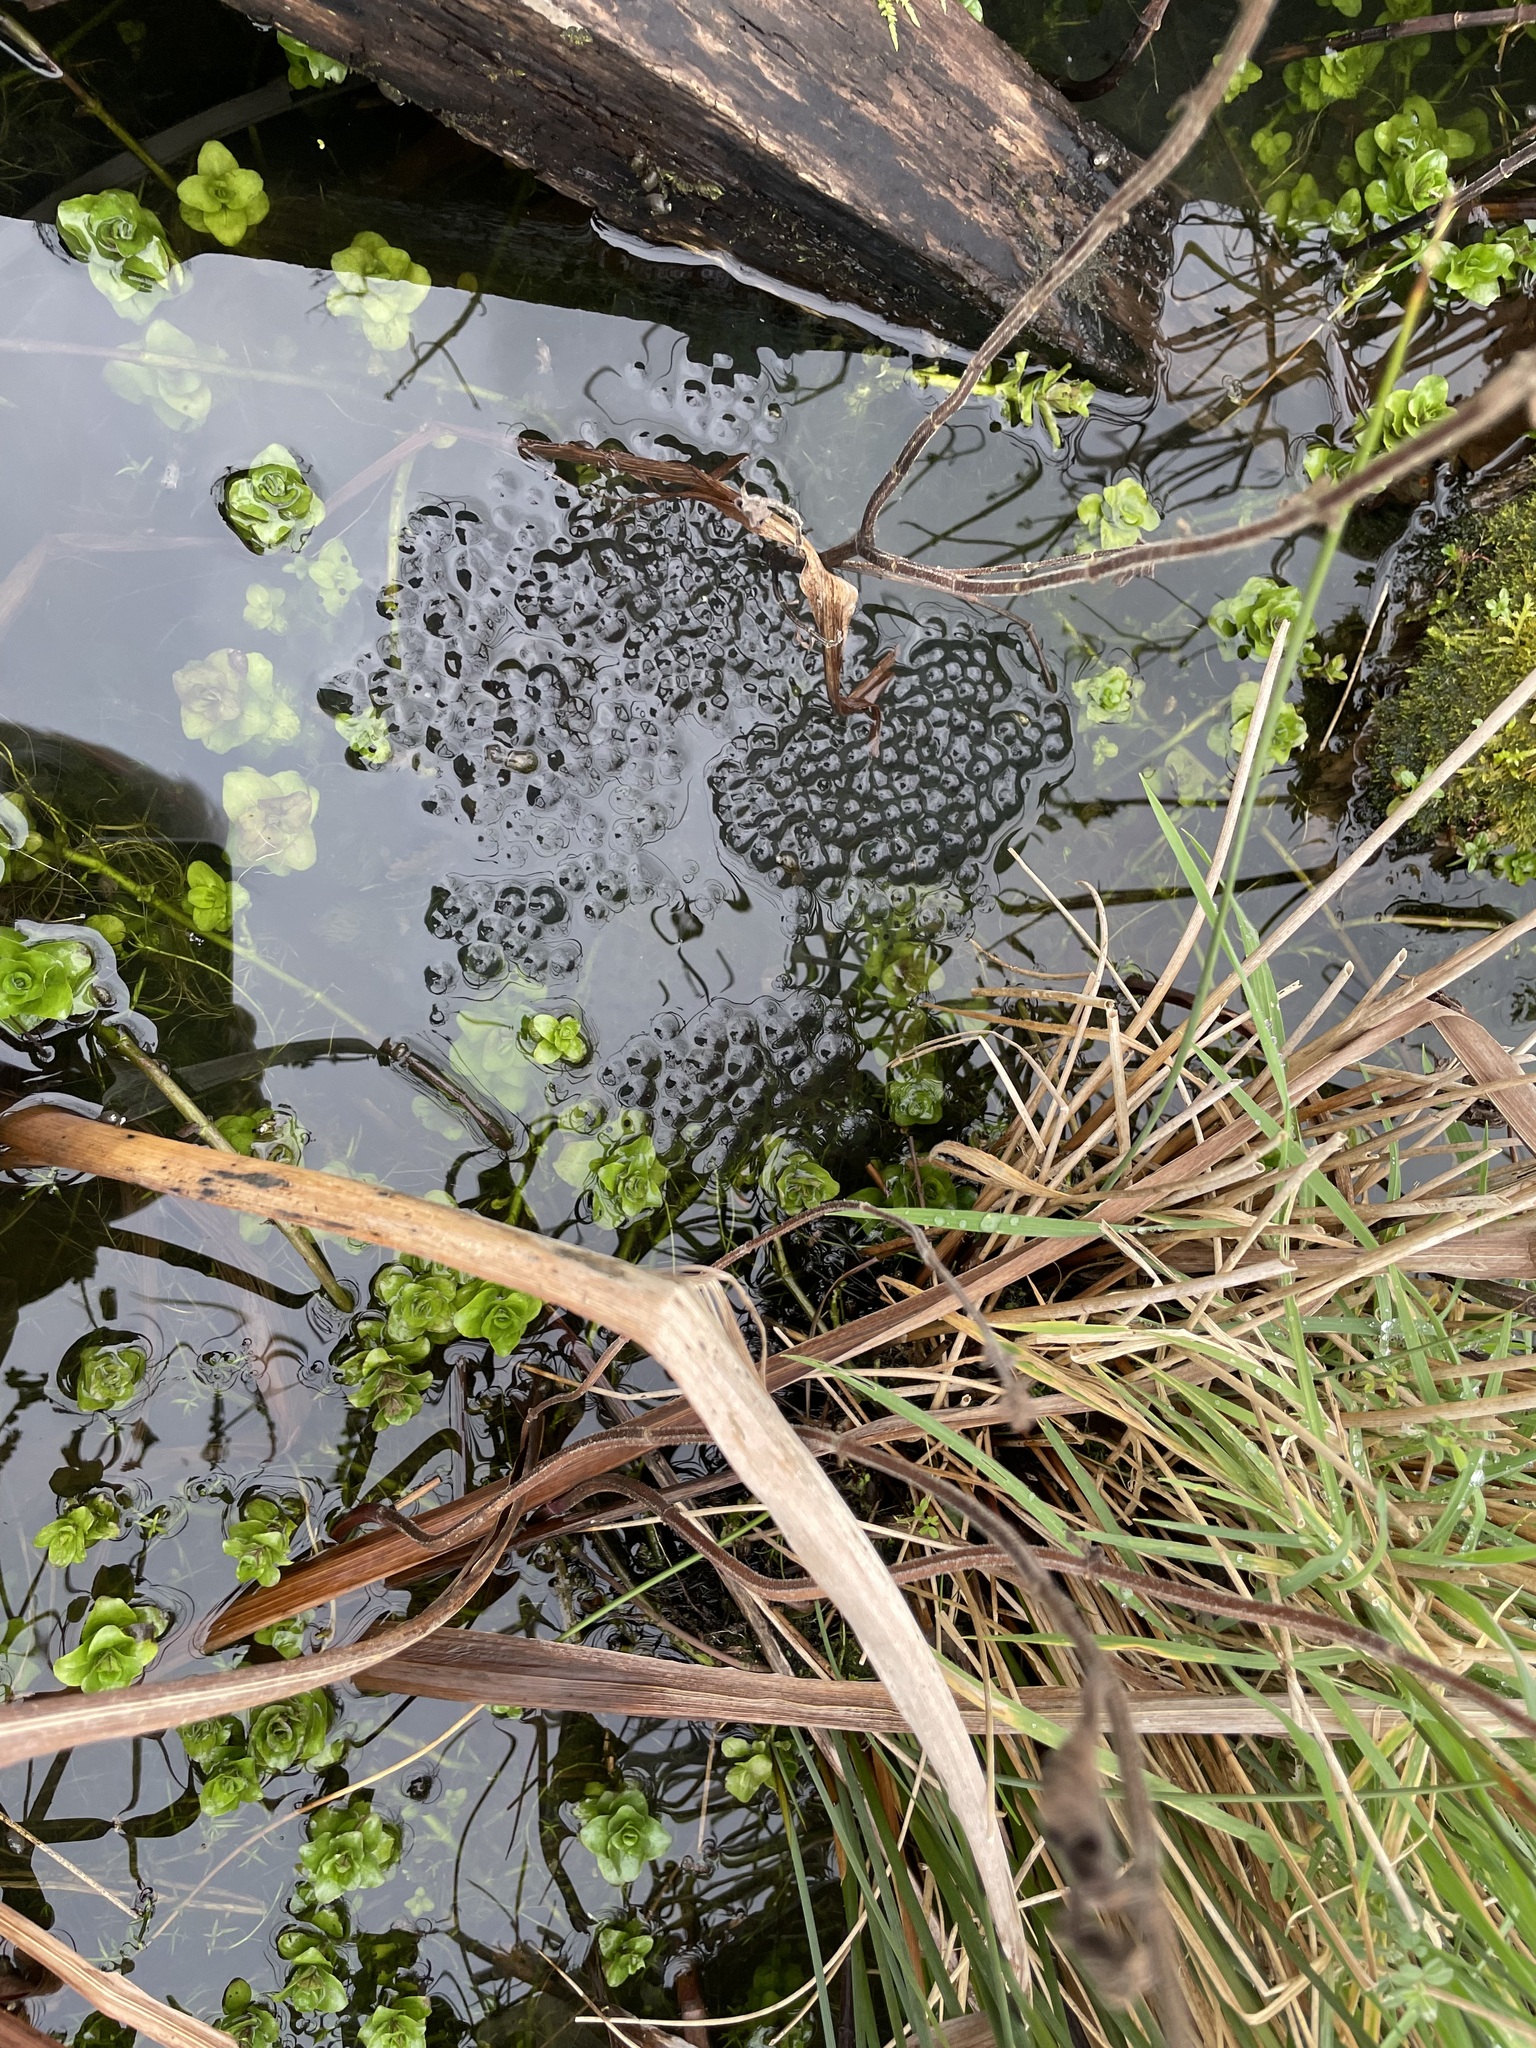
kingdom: Animalia
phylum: Chordata
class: Amphibia
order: Anura
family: Ranidae
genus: Rana
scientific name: Rana temporaria
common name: Common frog
